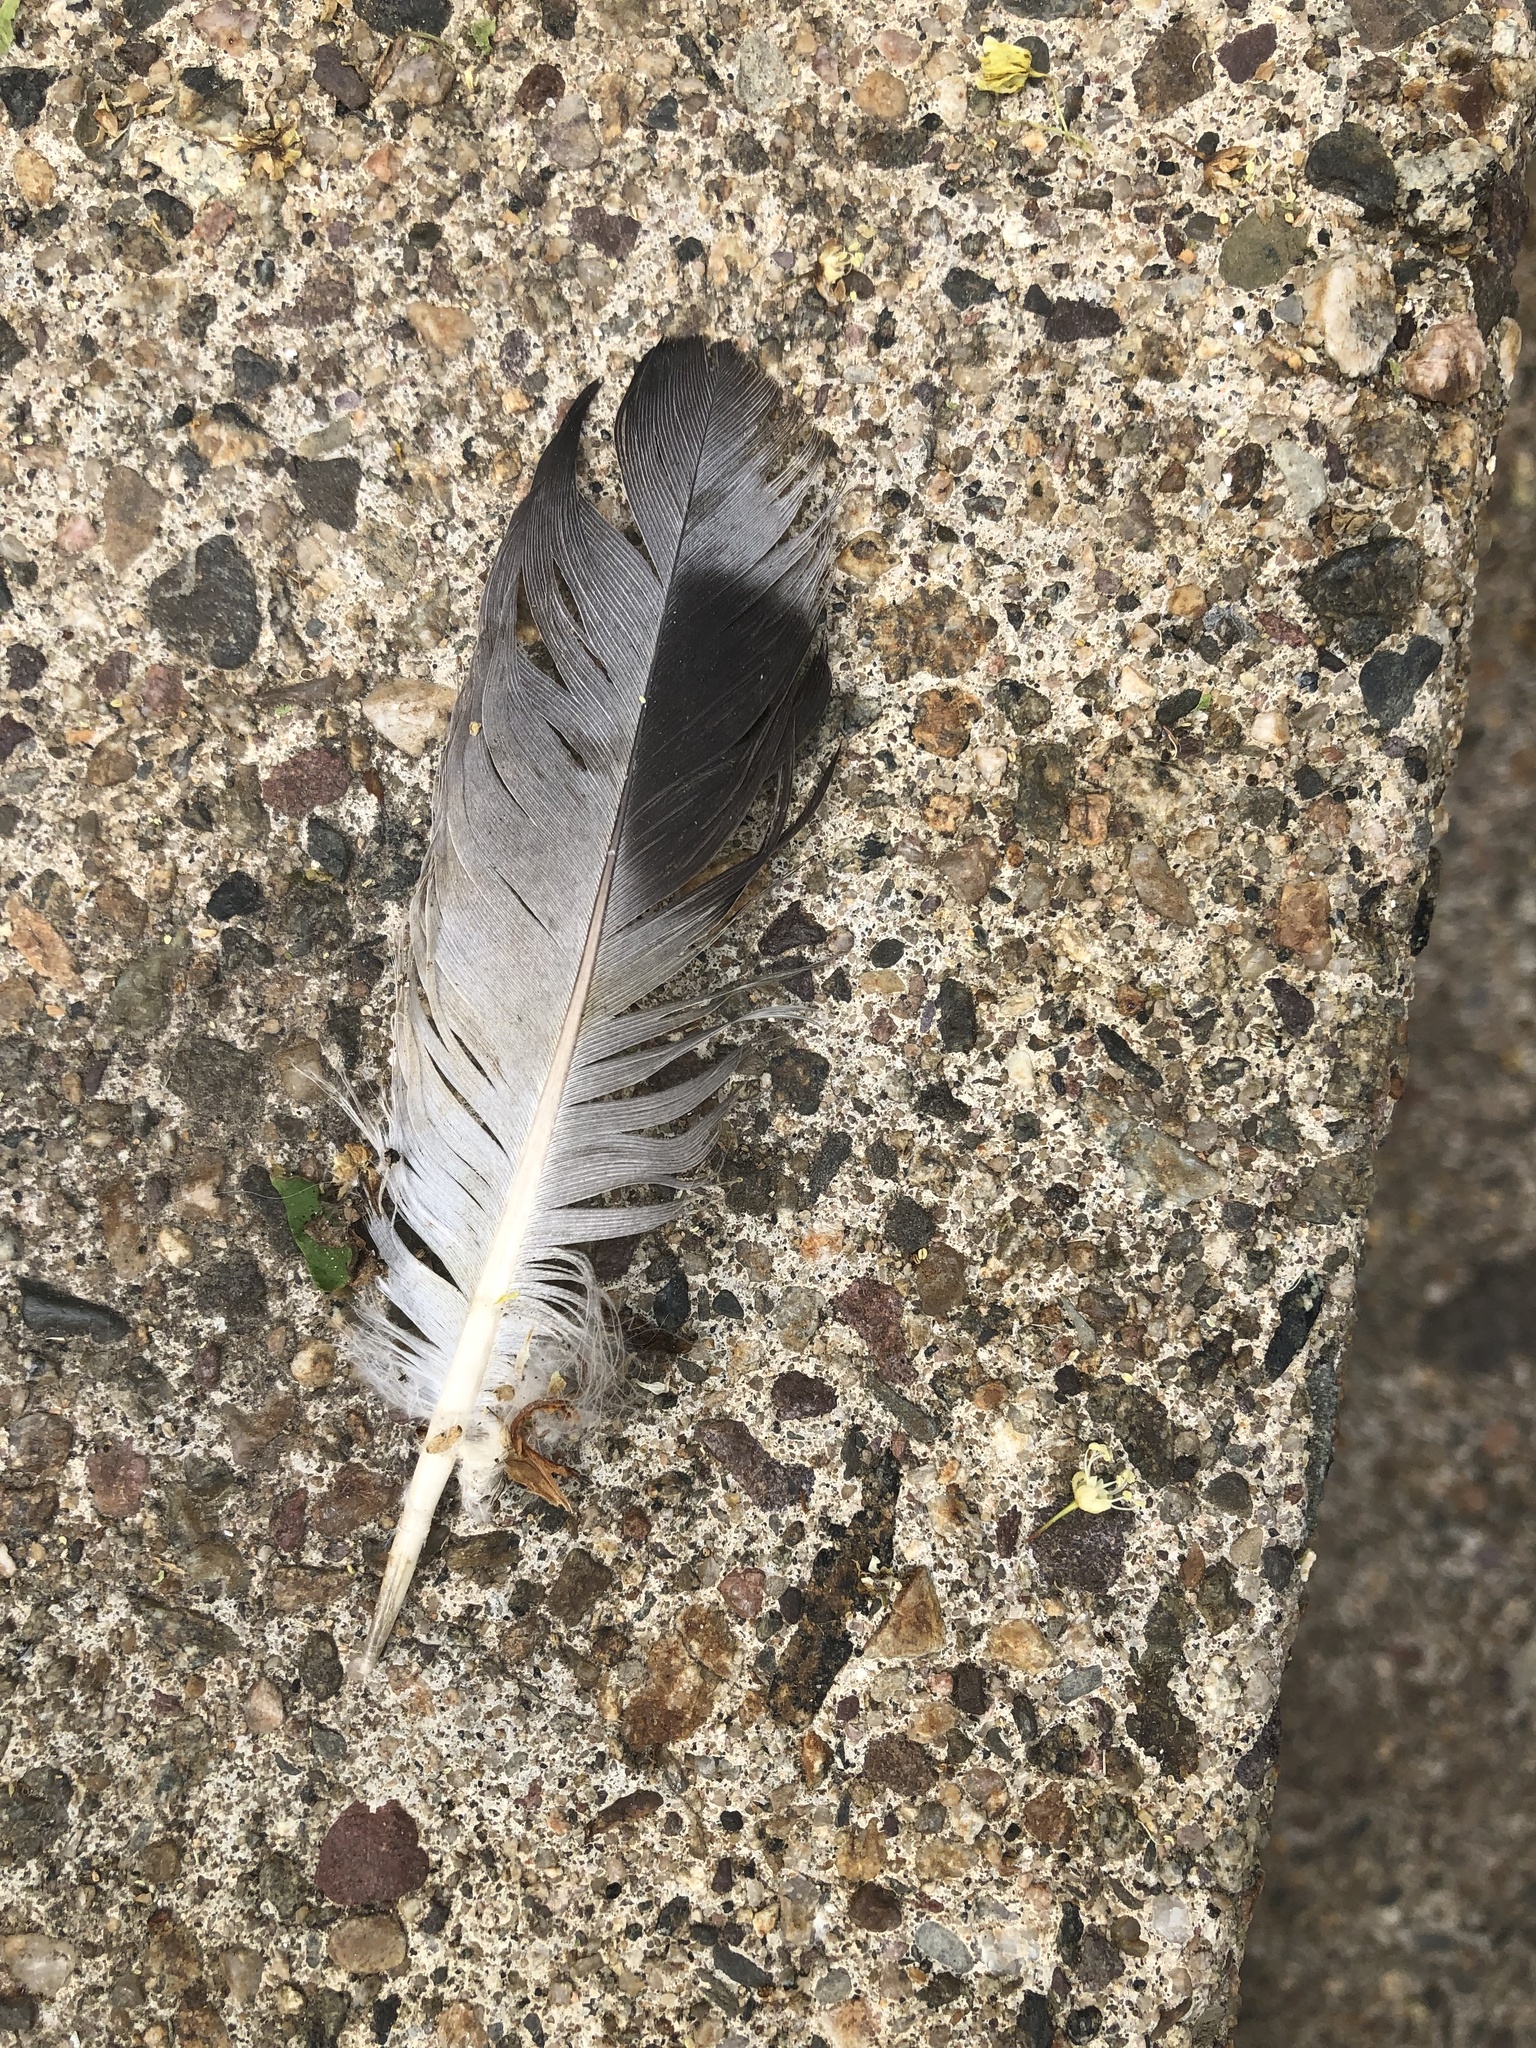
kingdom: Animalia
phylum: Chordata
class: Aves
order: Columbiformes
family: Columbidae
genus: Columba
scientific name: Columba livia
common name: Rock pigeon
